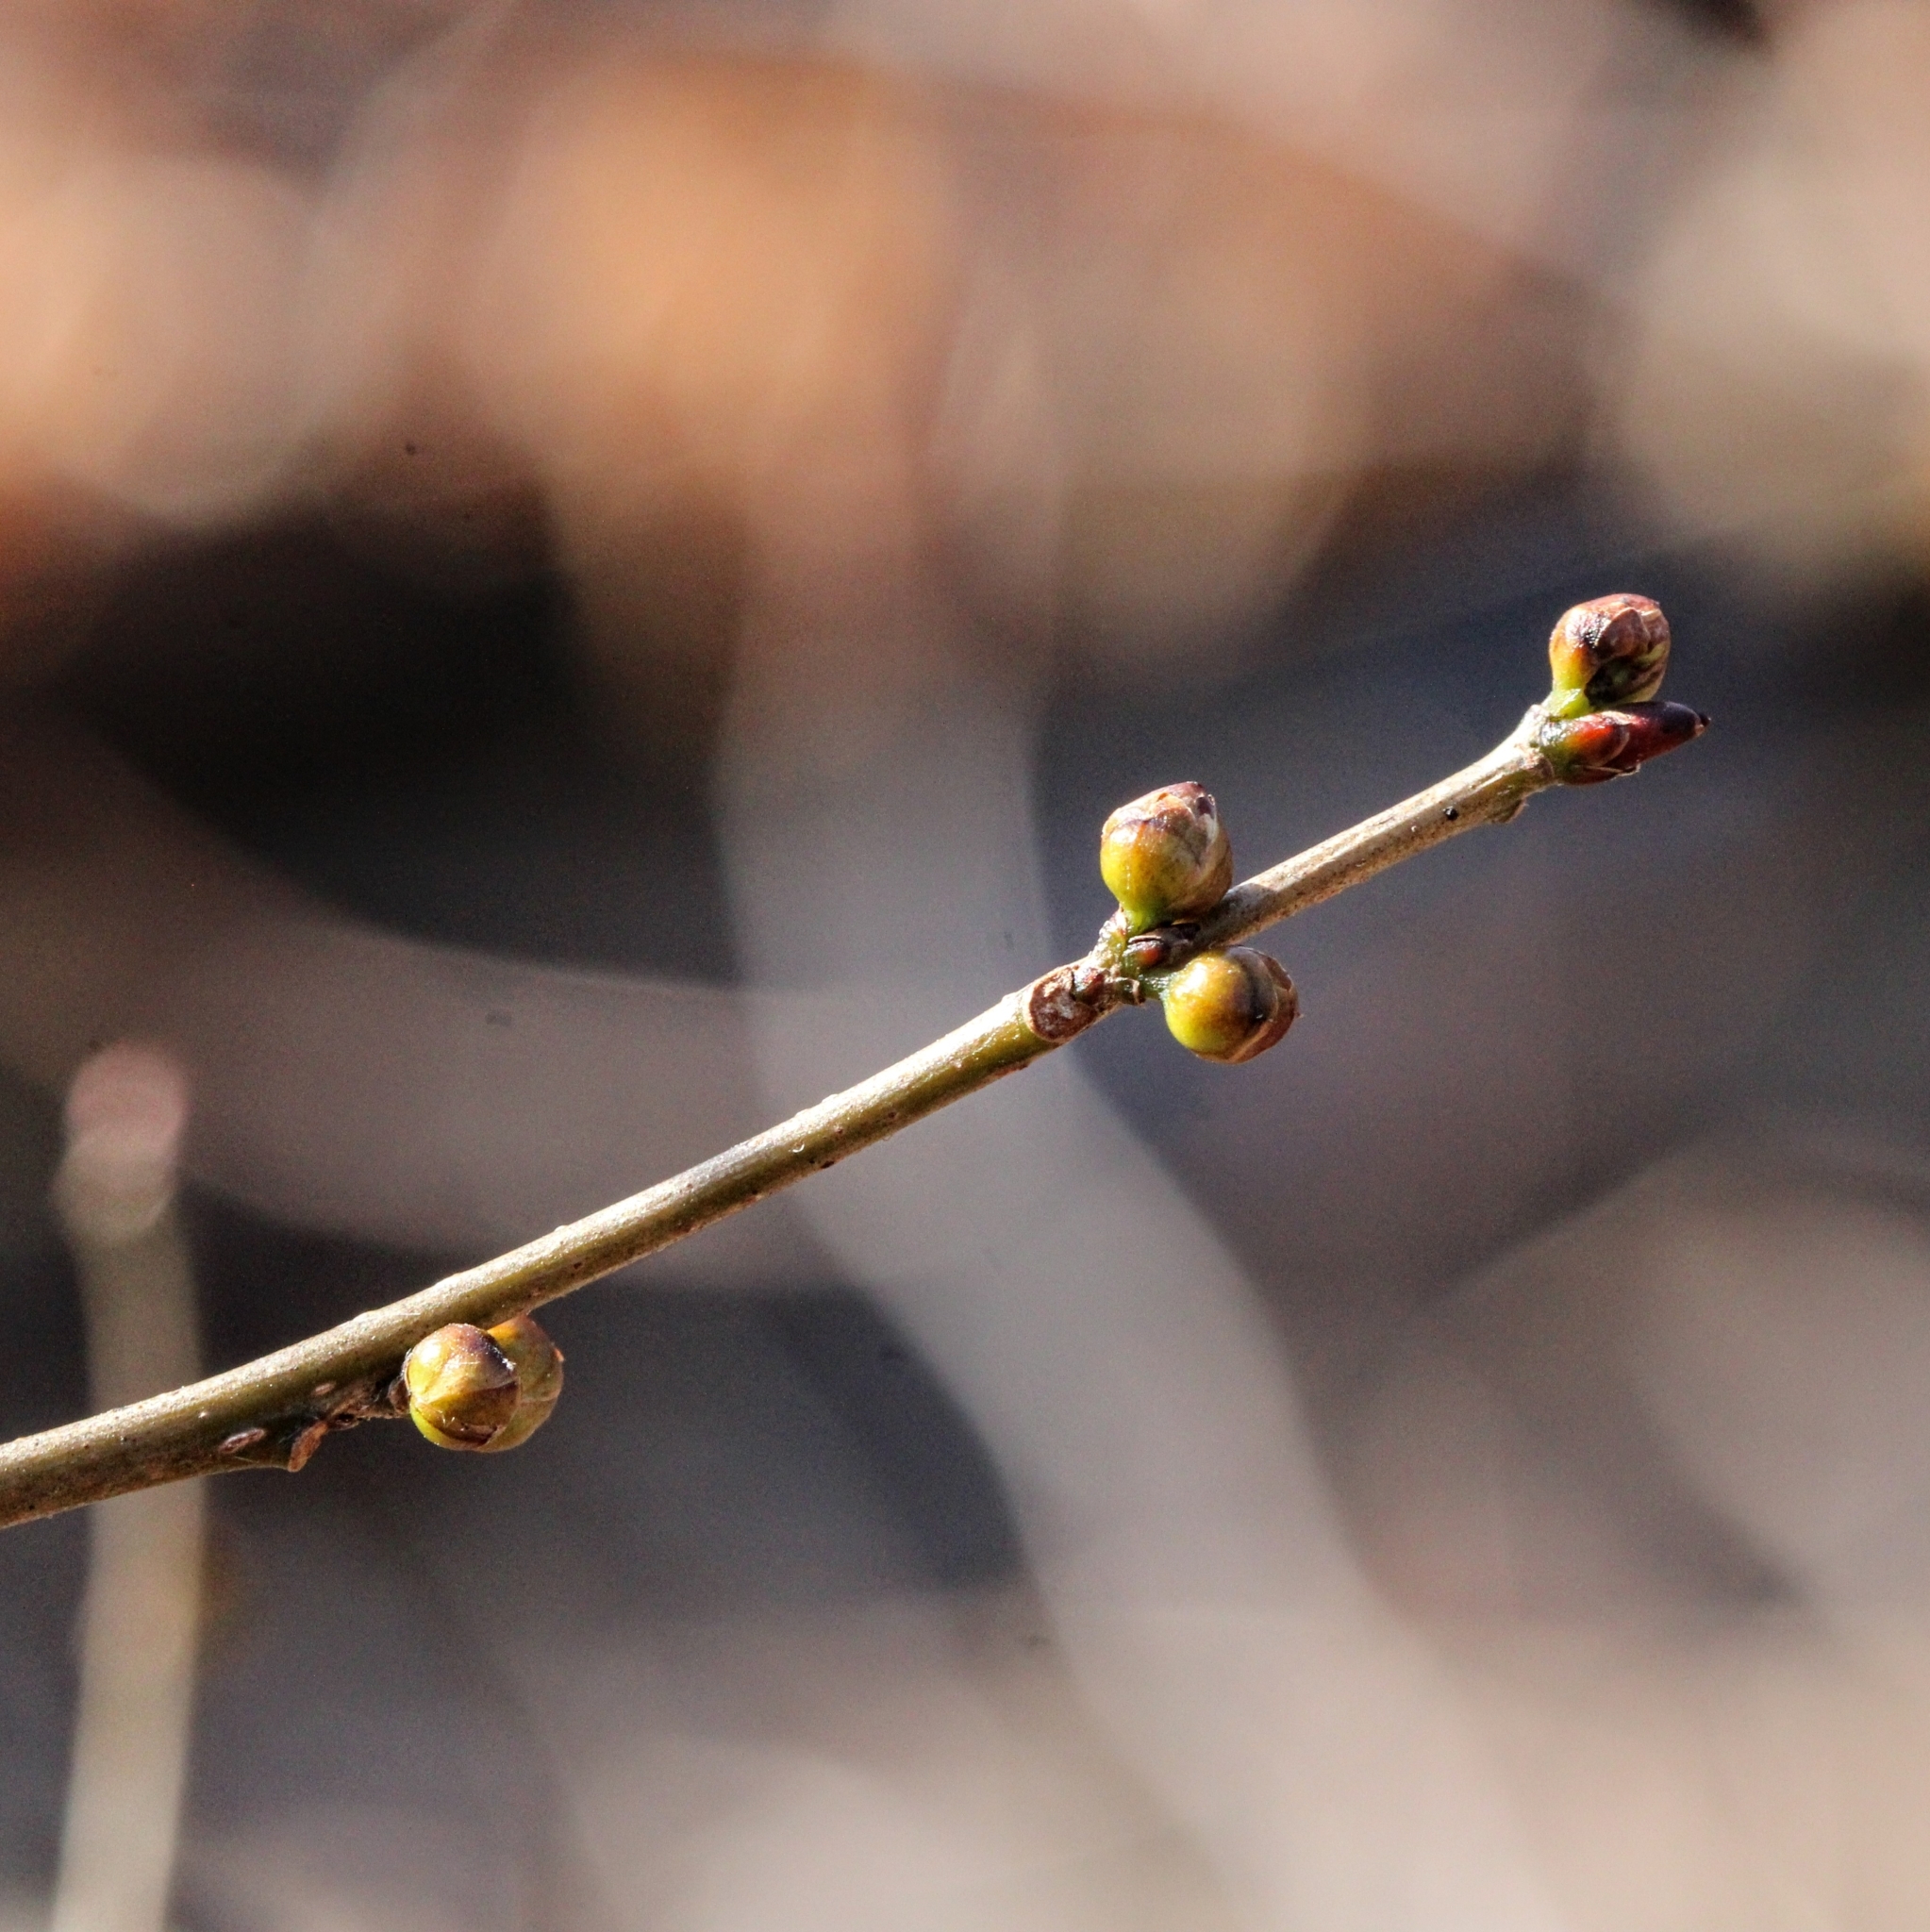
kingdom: Plantae
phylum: Tracheophyta
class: Magnoliopsida
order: Laurales
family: Lauraceae
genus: Lindera
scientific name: Lindera benzoin
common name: Spicebush
